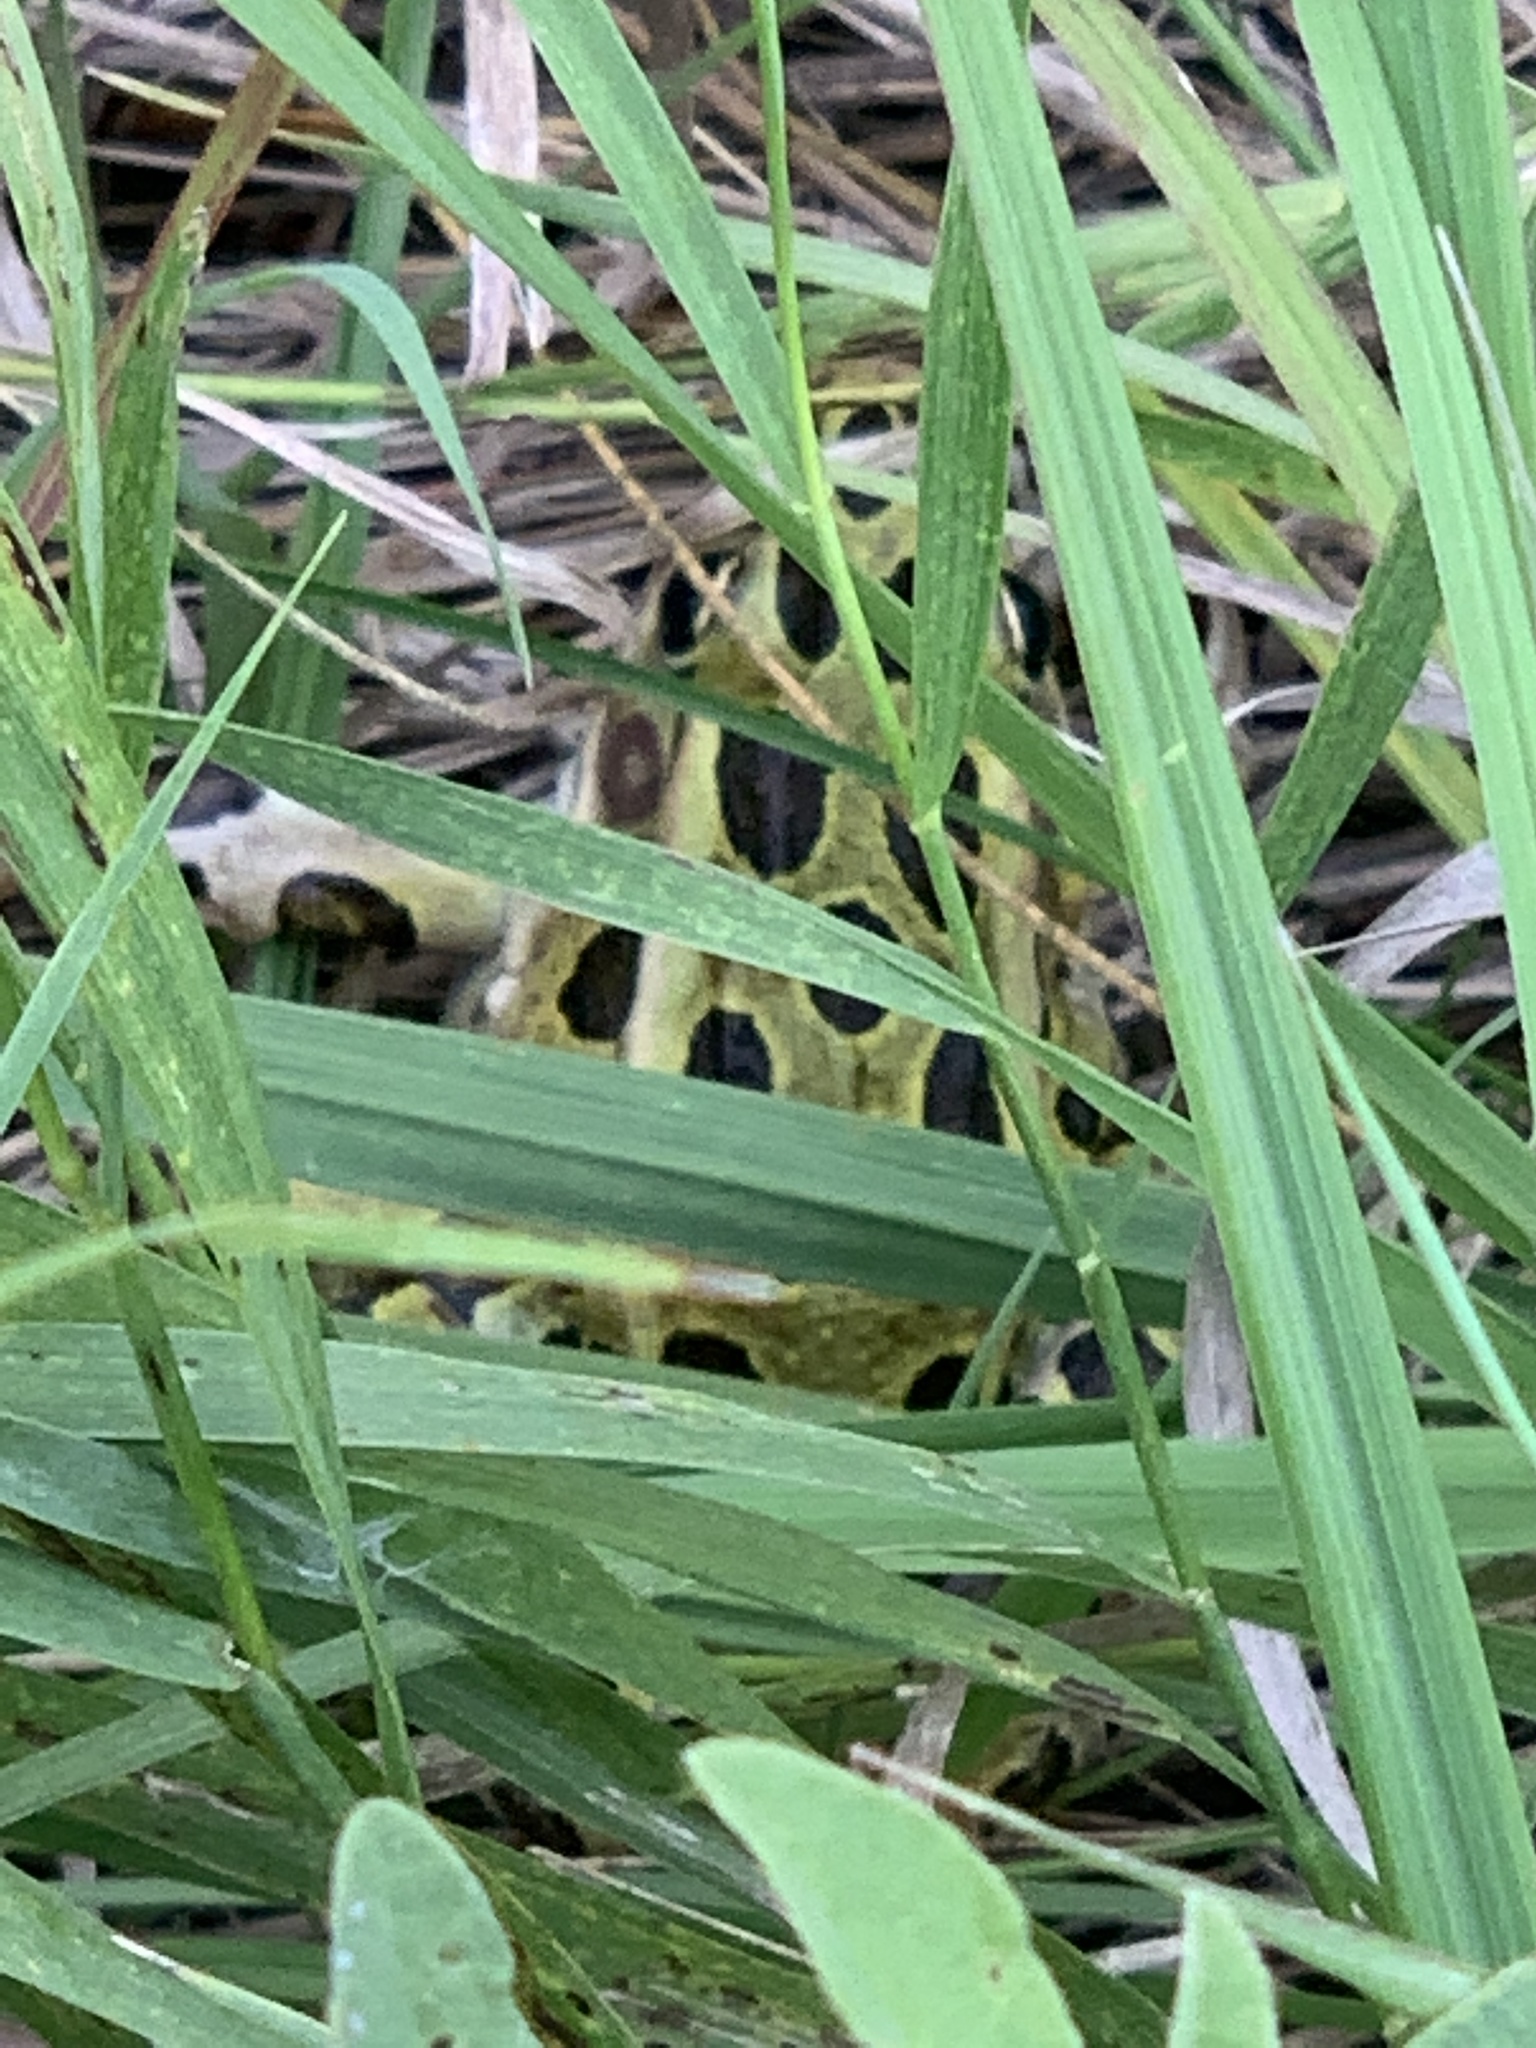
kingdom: Animalia
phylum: Chordata
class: Amphibia
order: Anura
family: Ranidae
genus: Lithobates
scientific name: Lithobates pipiens
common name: Northern leopard frog
